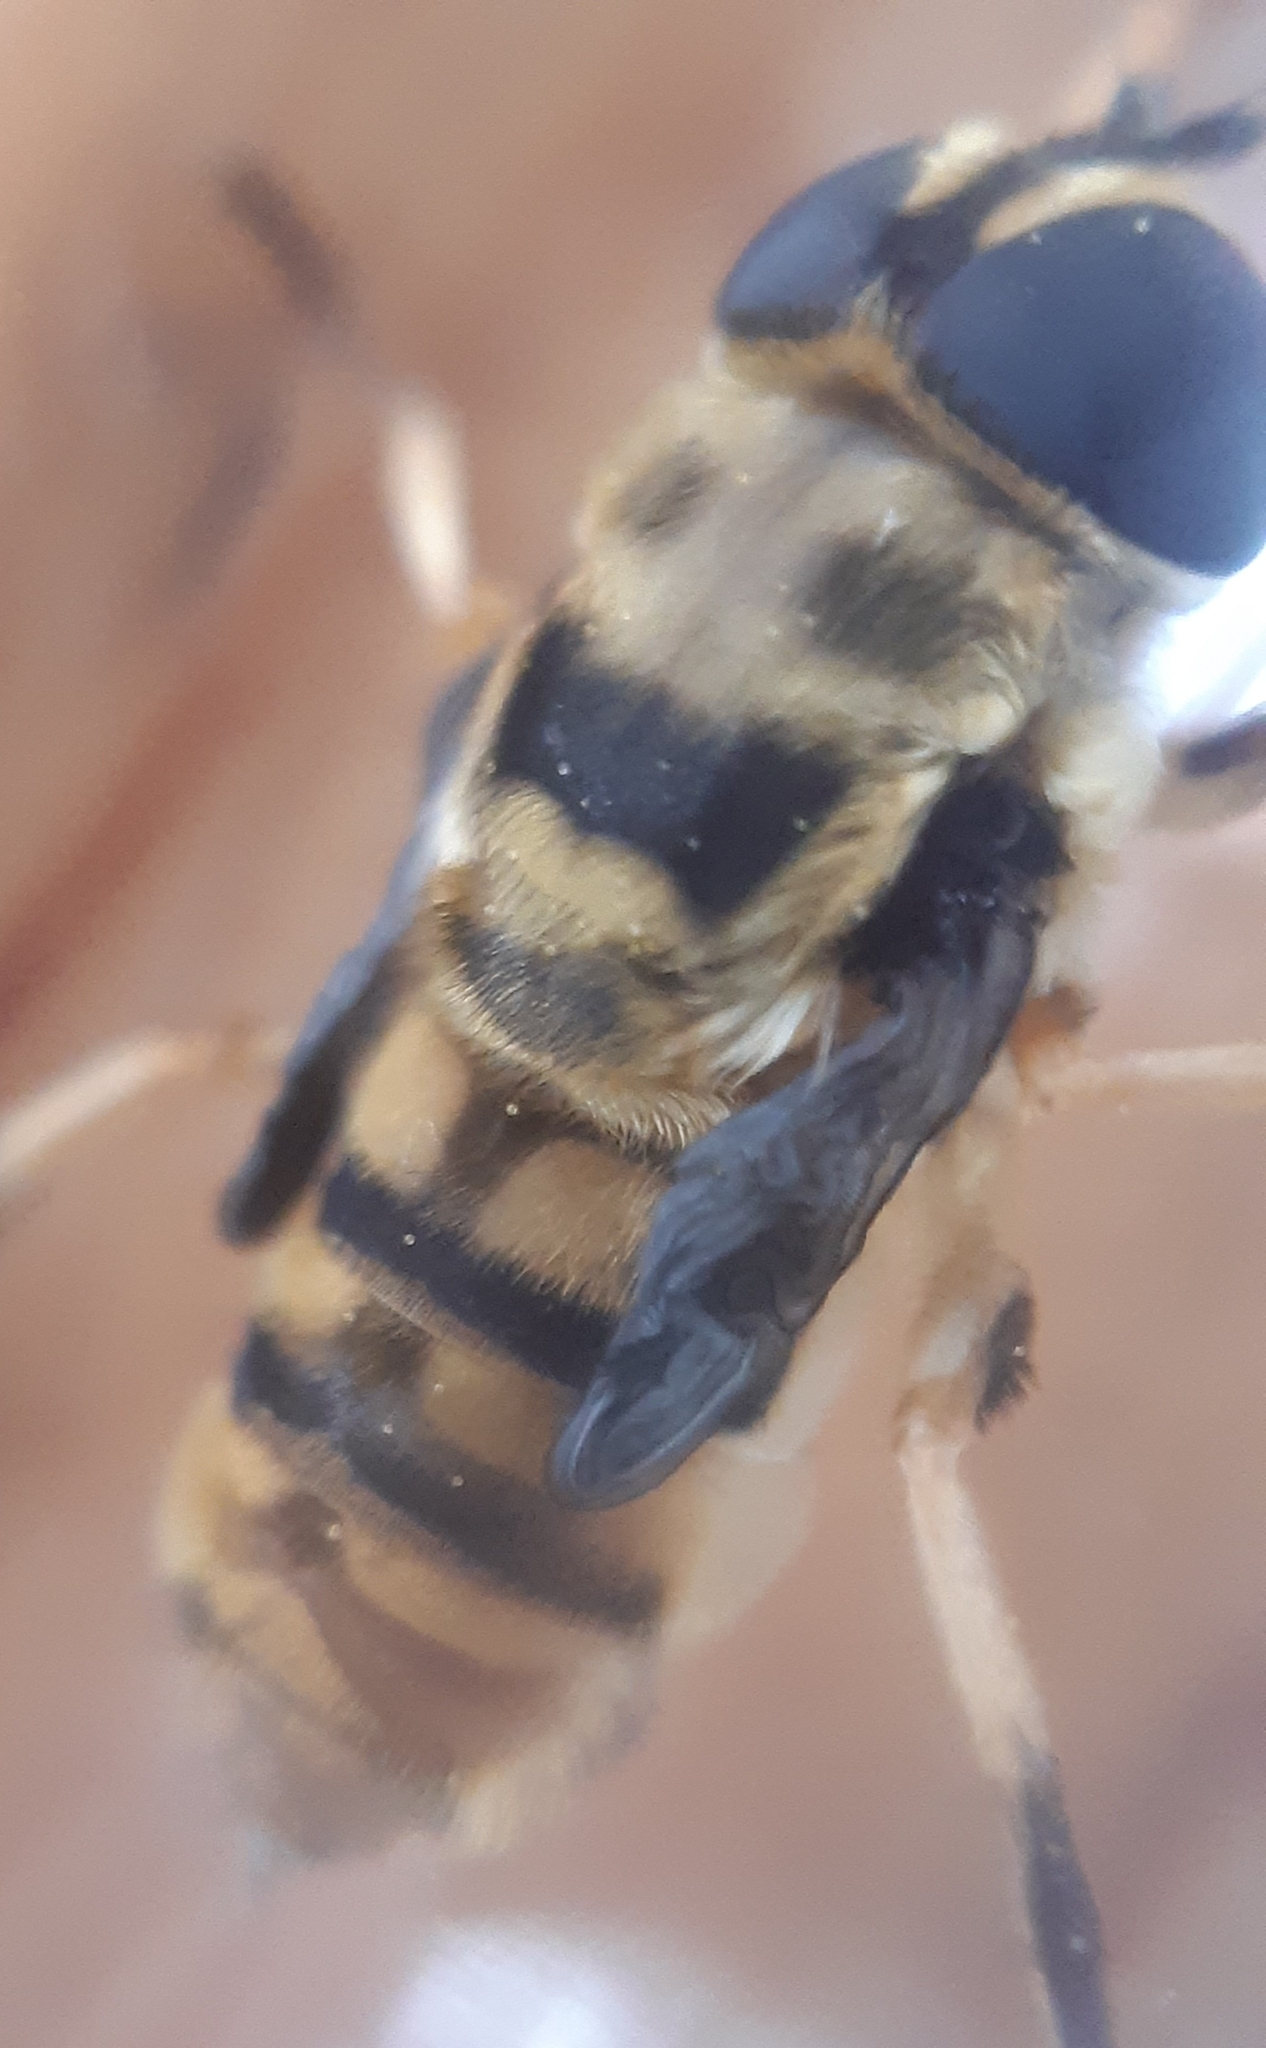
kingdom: Animalia
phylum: Arthropoda
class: Insecta
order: Diptera
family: Syrphidae
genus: Myathropa
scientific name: Myathropa florea
